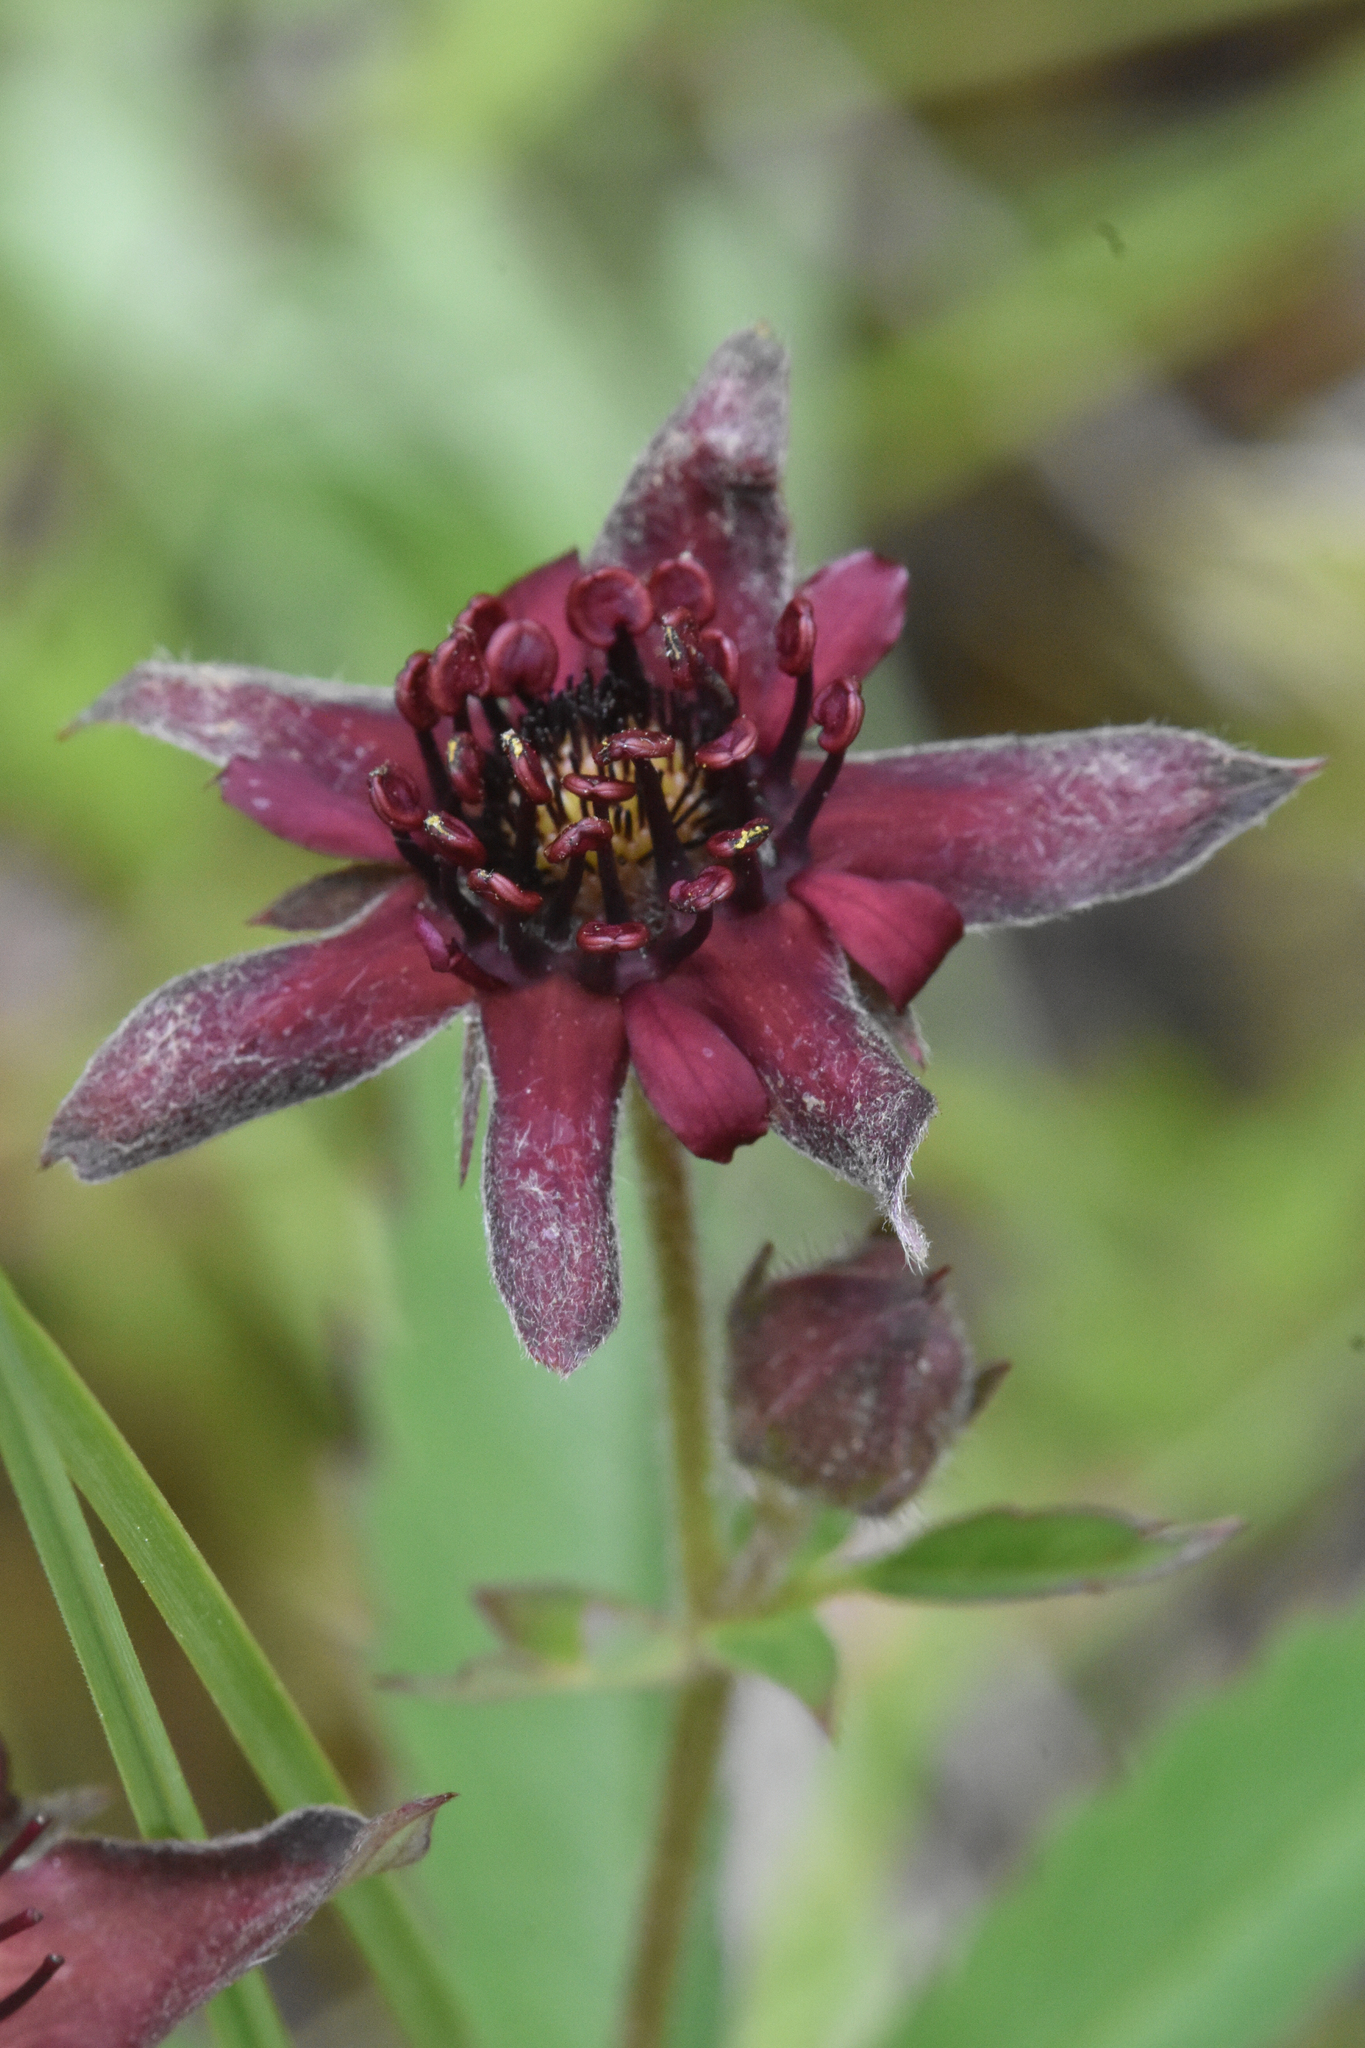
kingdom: Plantae
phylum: Tracheophyta
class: Magnoliopsida
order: Rosales
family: Rosaceae
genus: Comarum
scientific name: Comarum palustre
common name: Marsh cinquefoil
